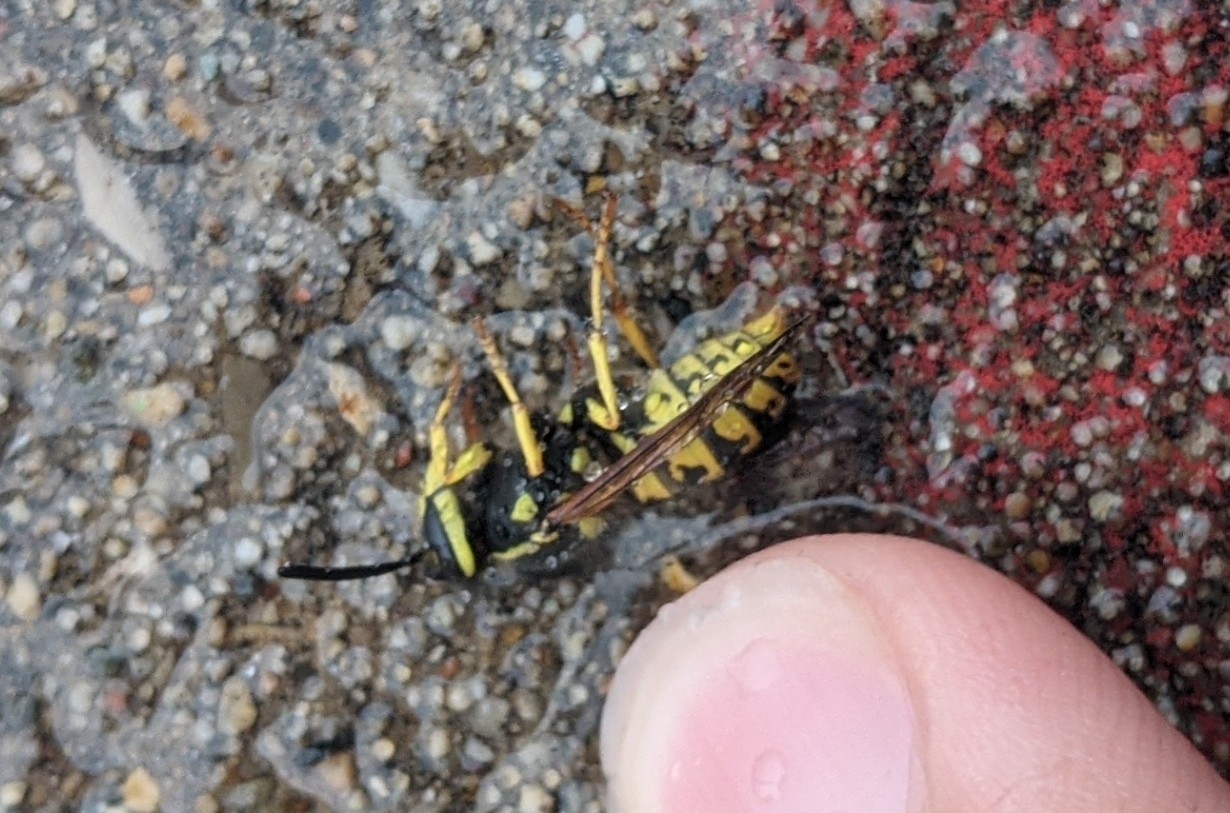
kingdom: Animalia
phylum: Arthropoda
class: Insecta
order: Hymenoptera
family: Vespidae
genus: Vespula
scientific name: Vespula germanica
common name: German wasp
